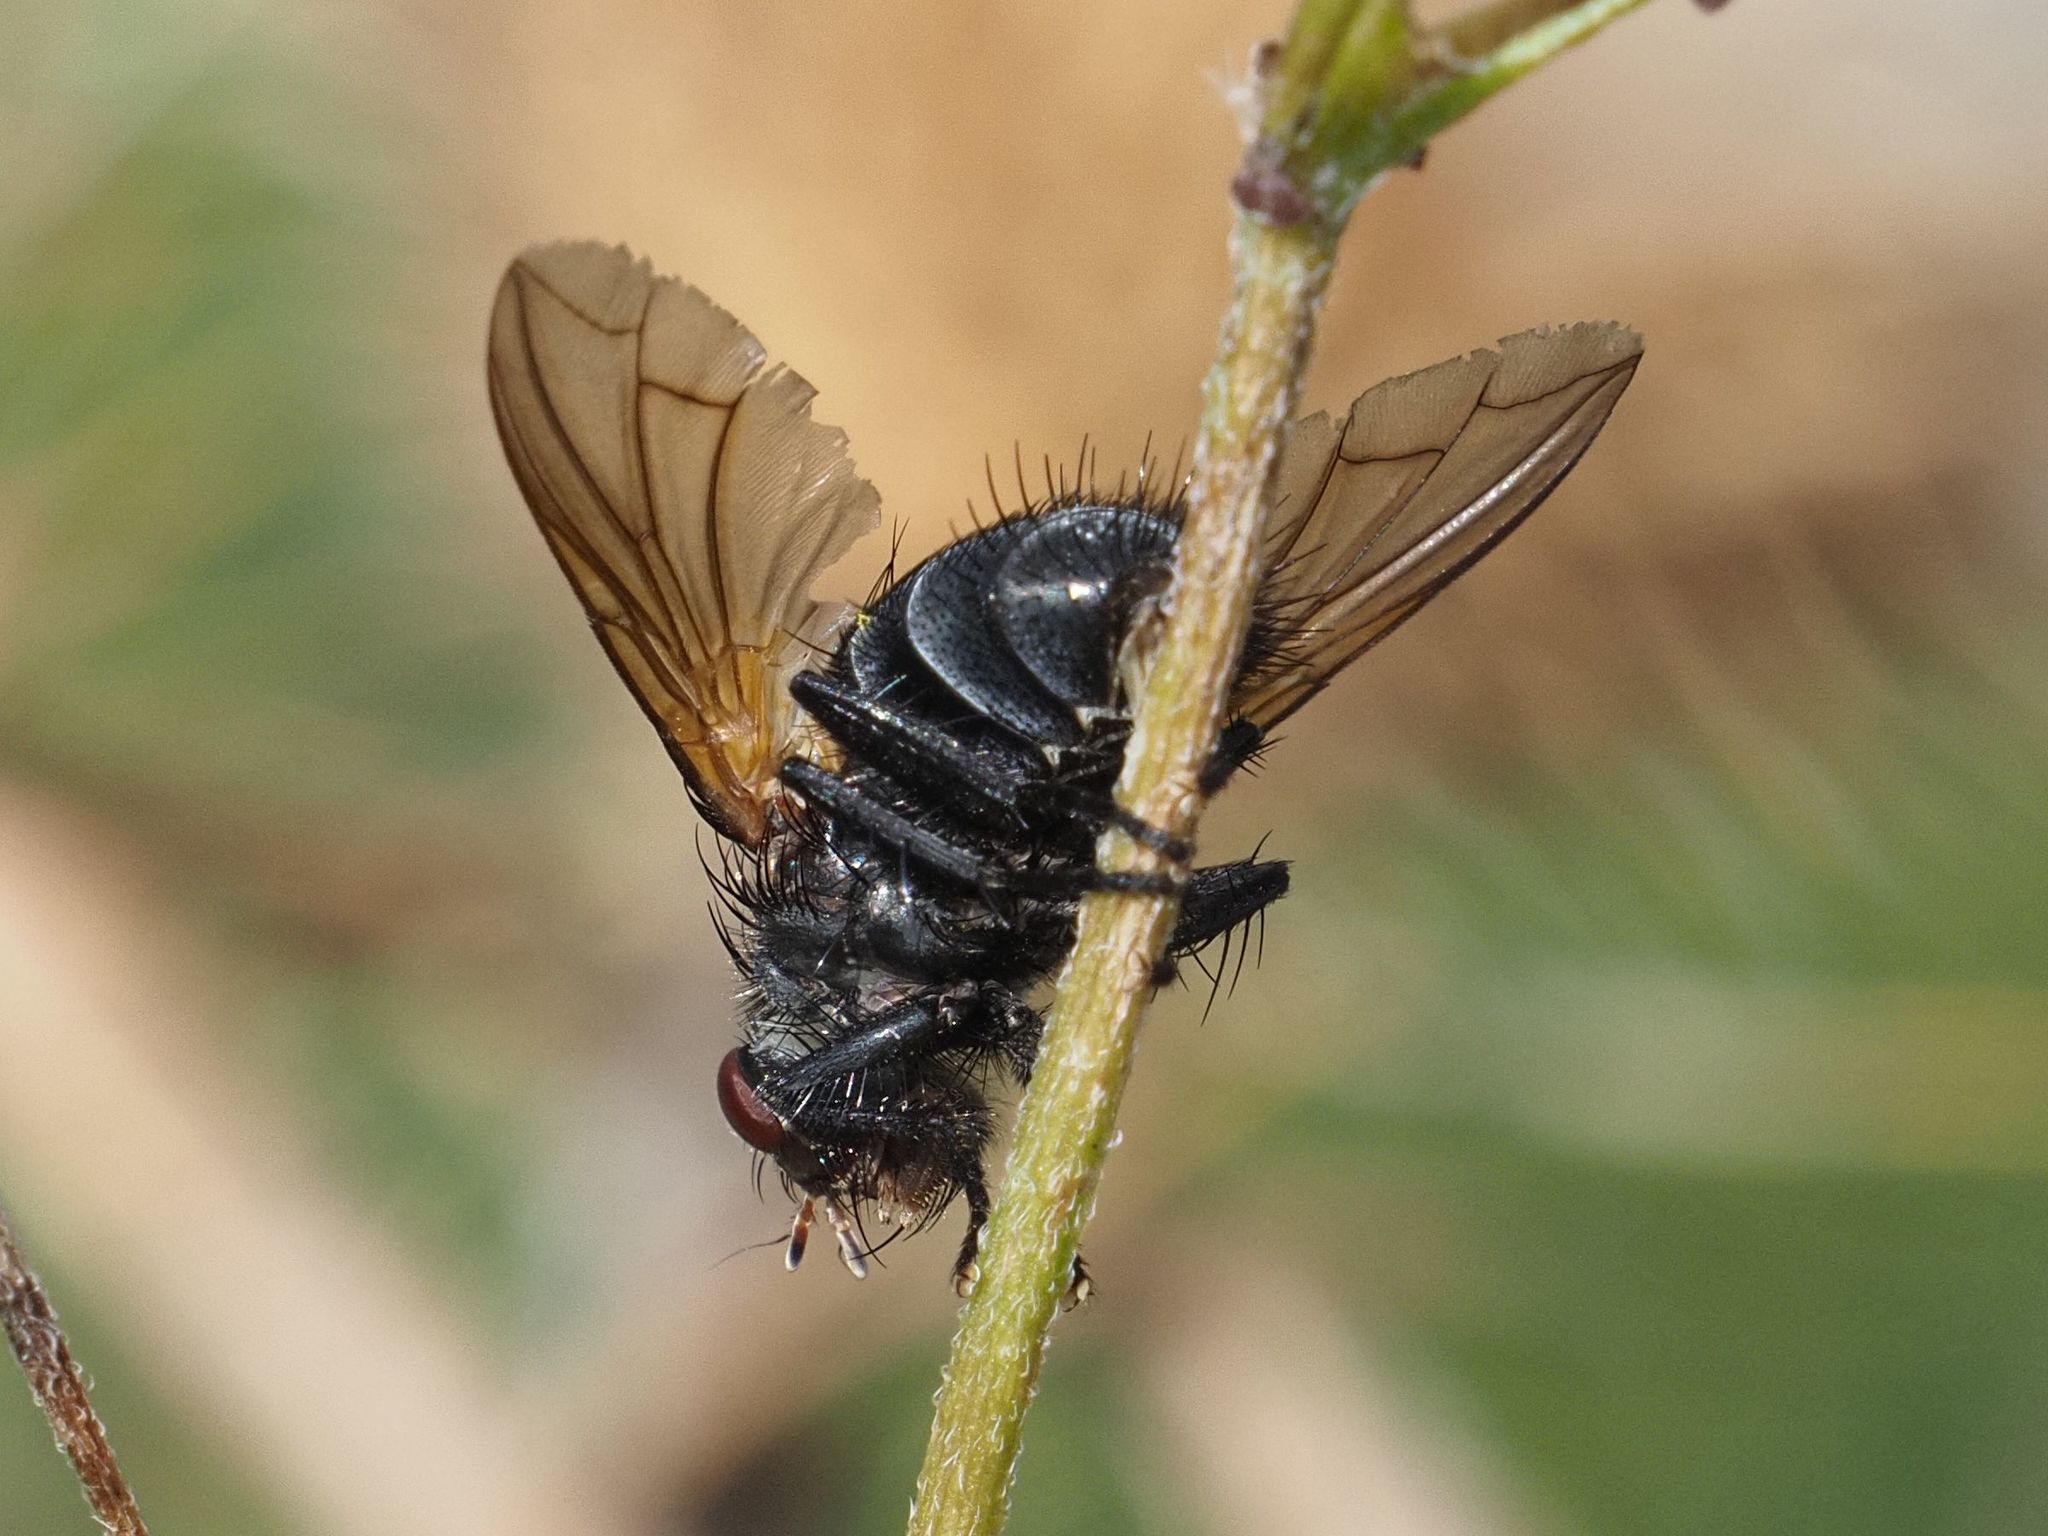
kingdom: Animalia
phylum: Arthropoda
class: Insecta
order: Diptera
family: Tachinidae
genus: Nemoraea
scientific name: Nemoraea pellucida
